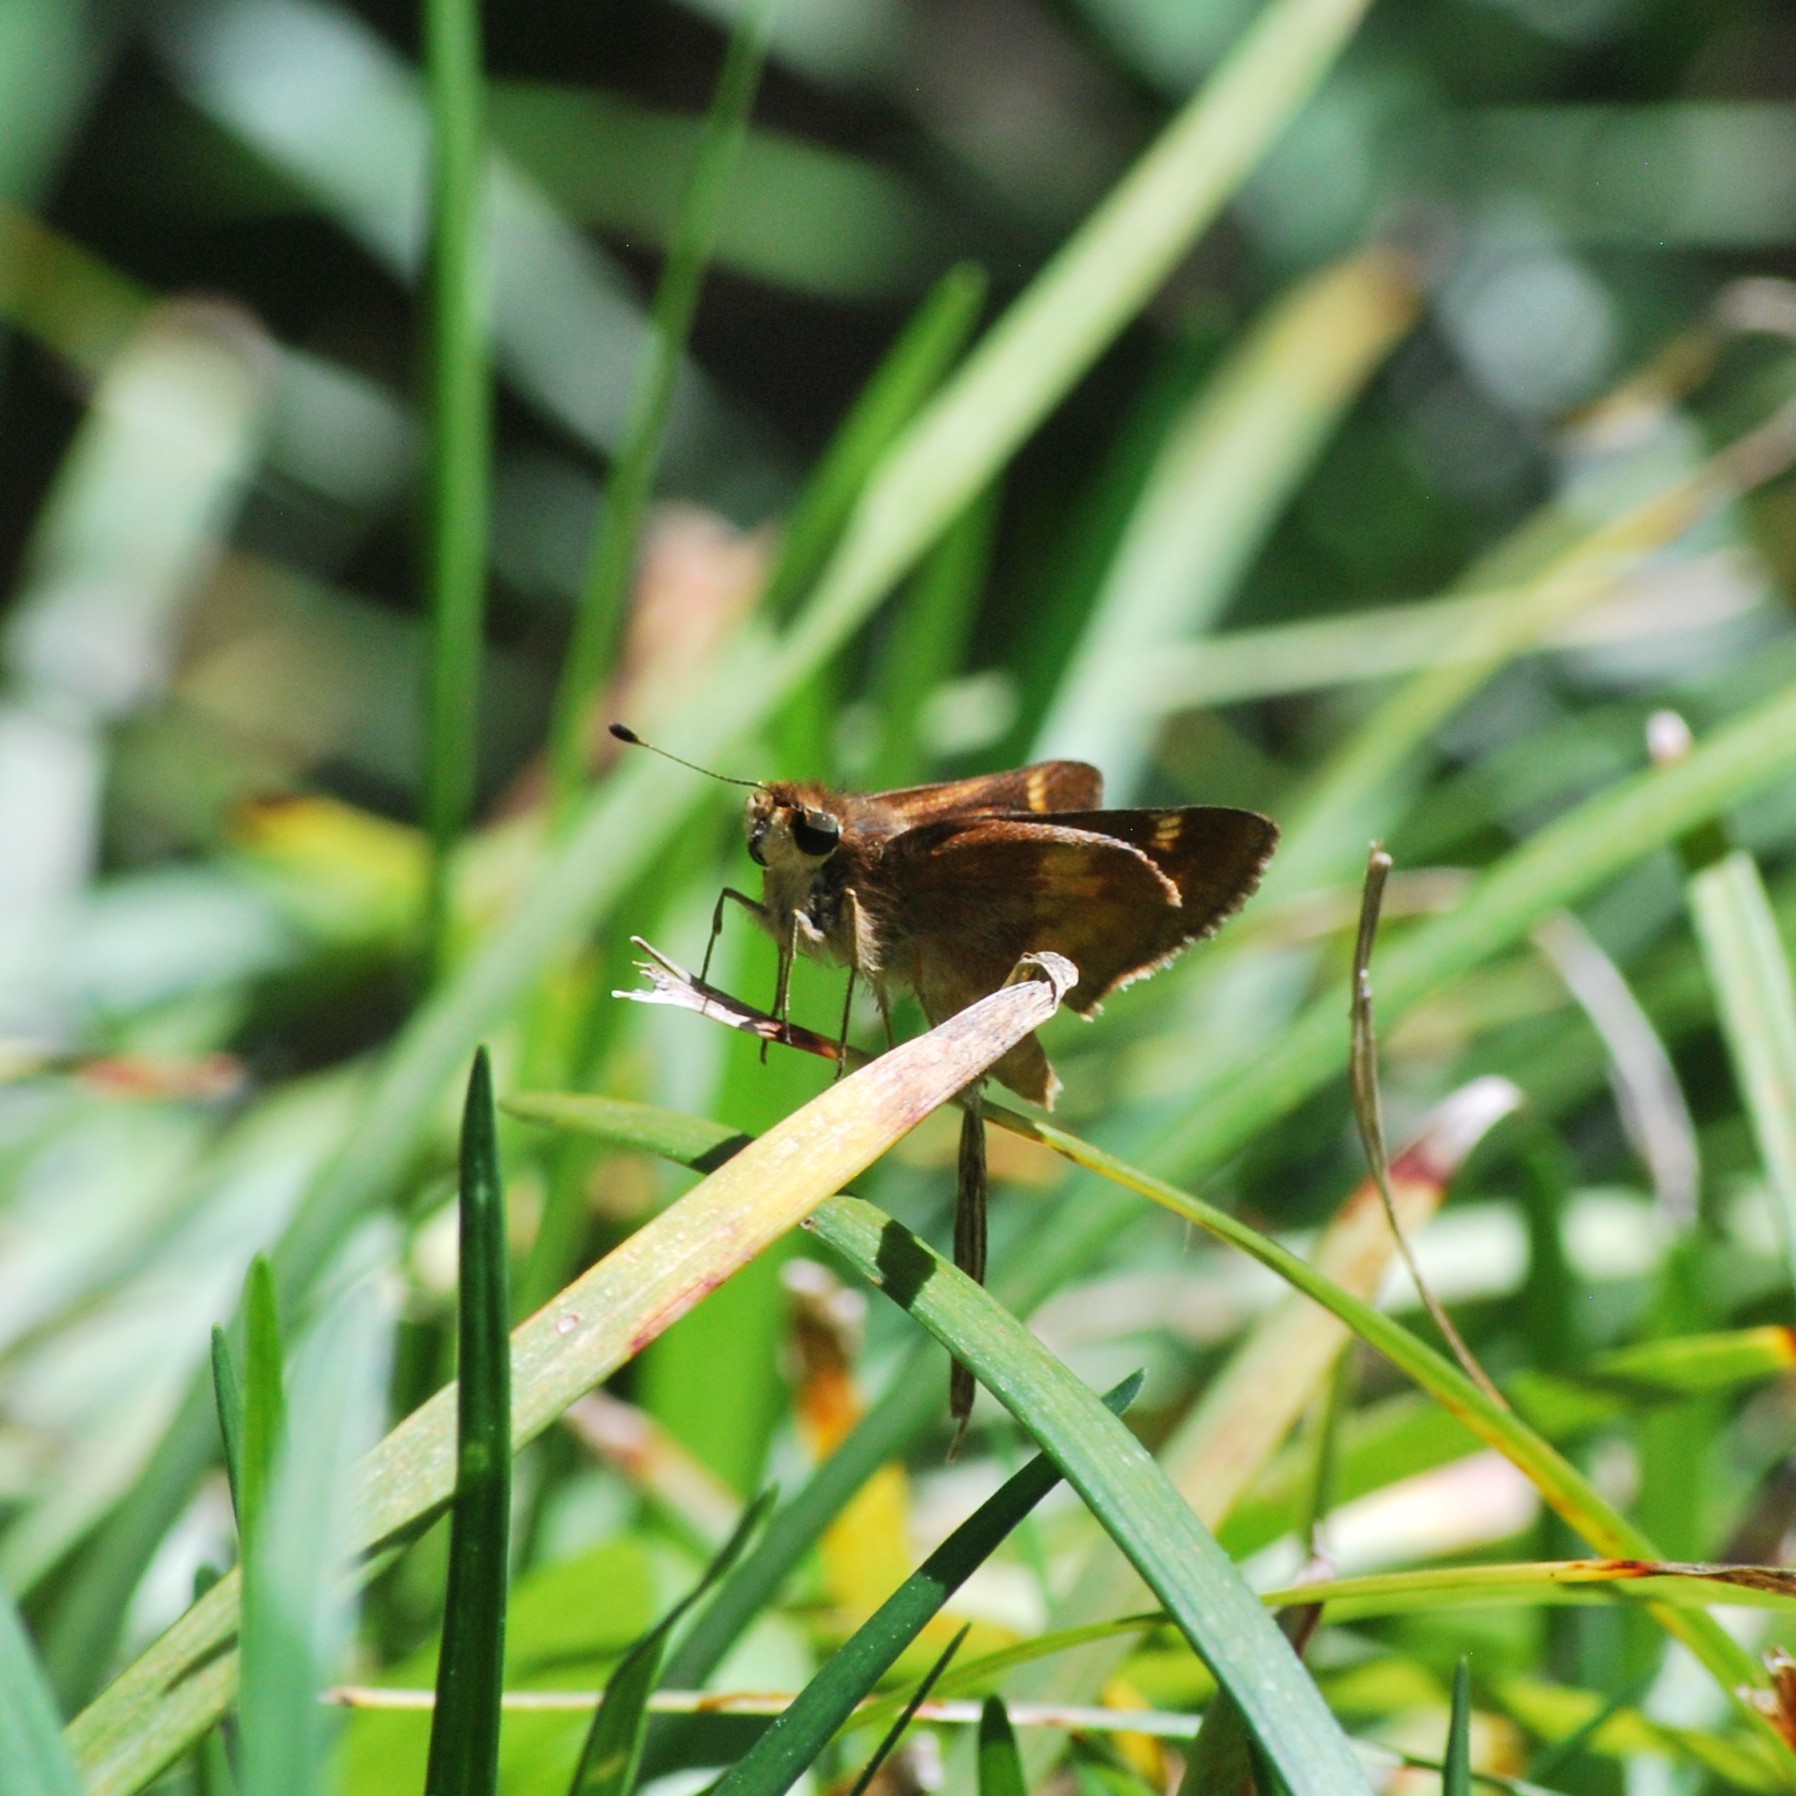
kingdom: Animalia
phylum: Arthropoda
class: Insecta
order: Lepidoptera
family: Hesperiidae
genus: Lon
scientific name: Lon melane
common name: Umber skipper
